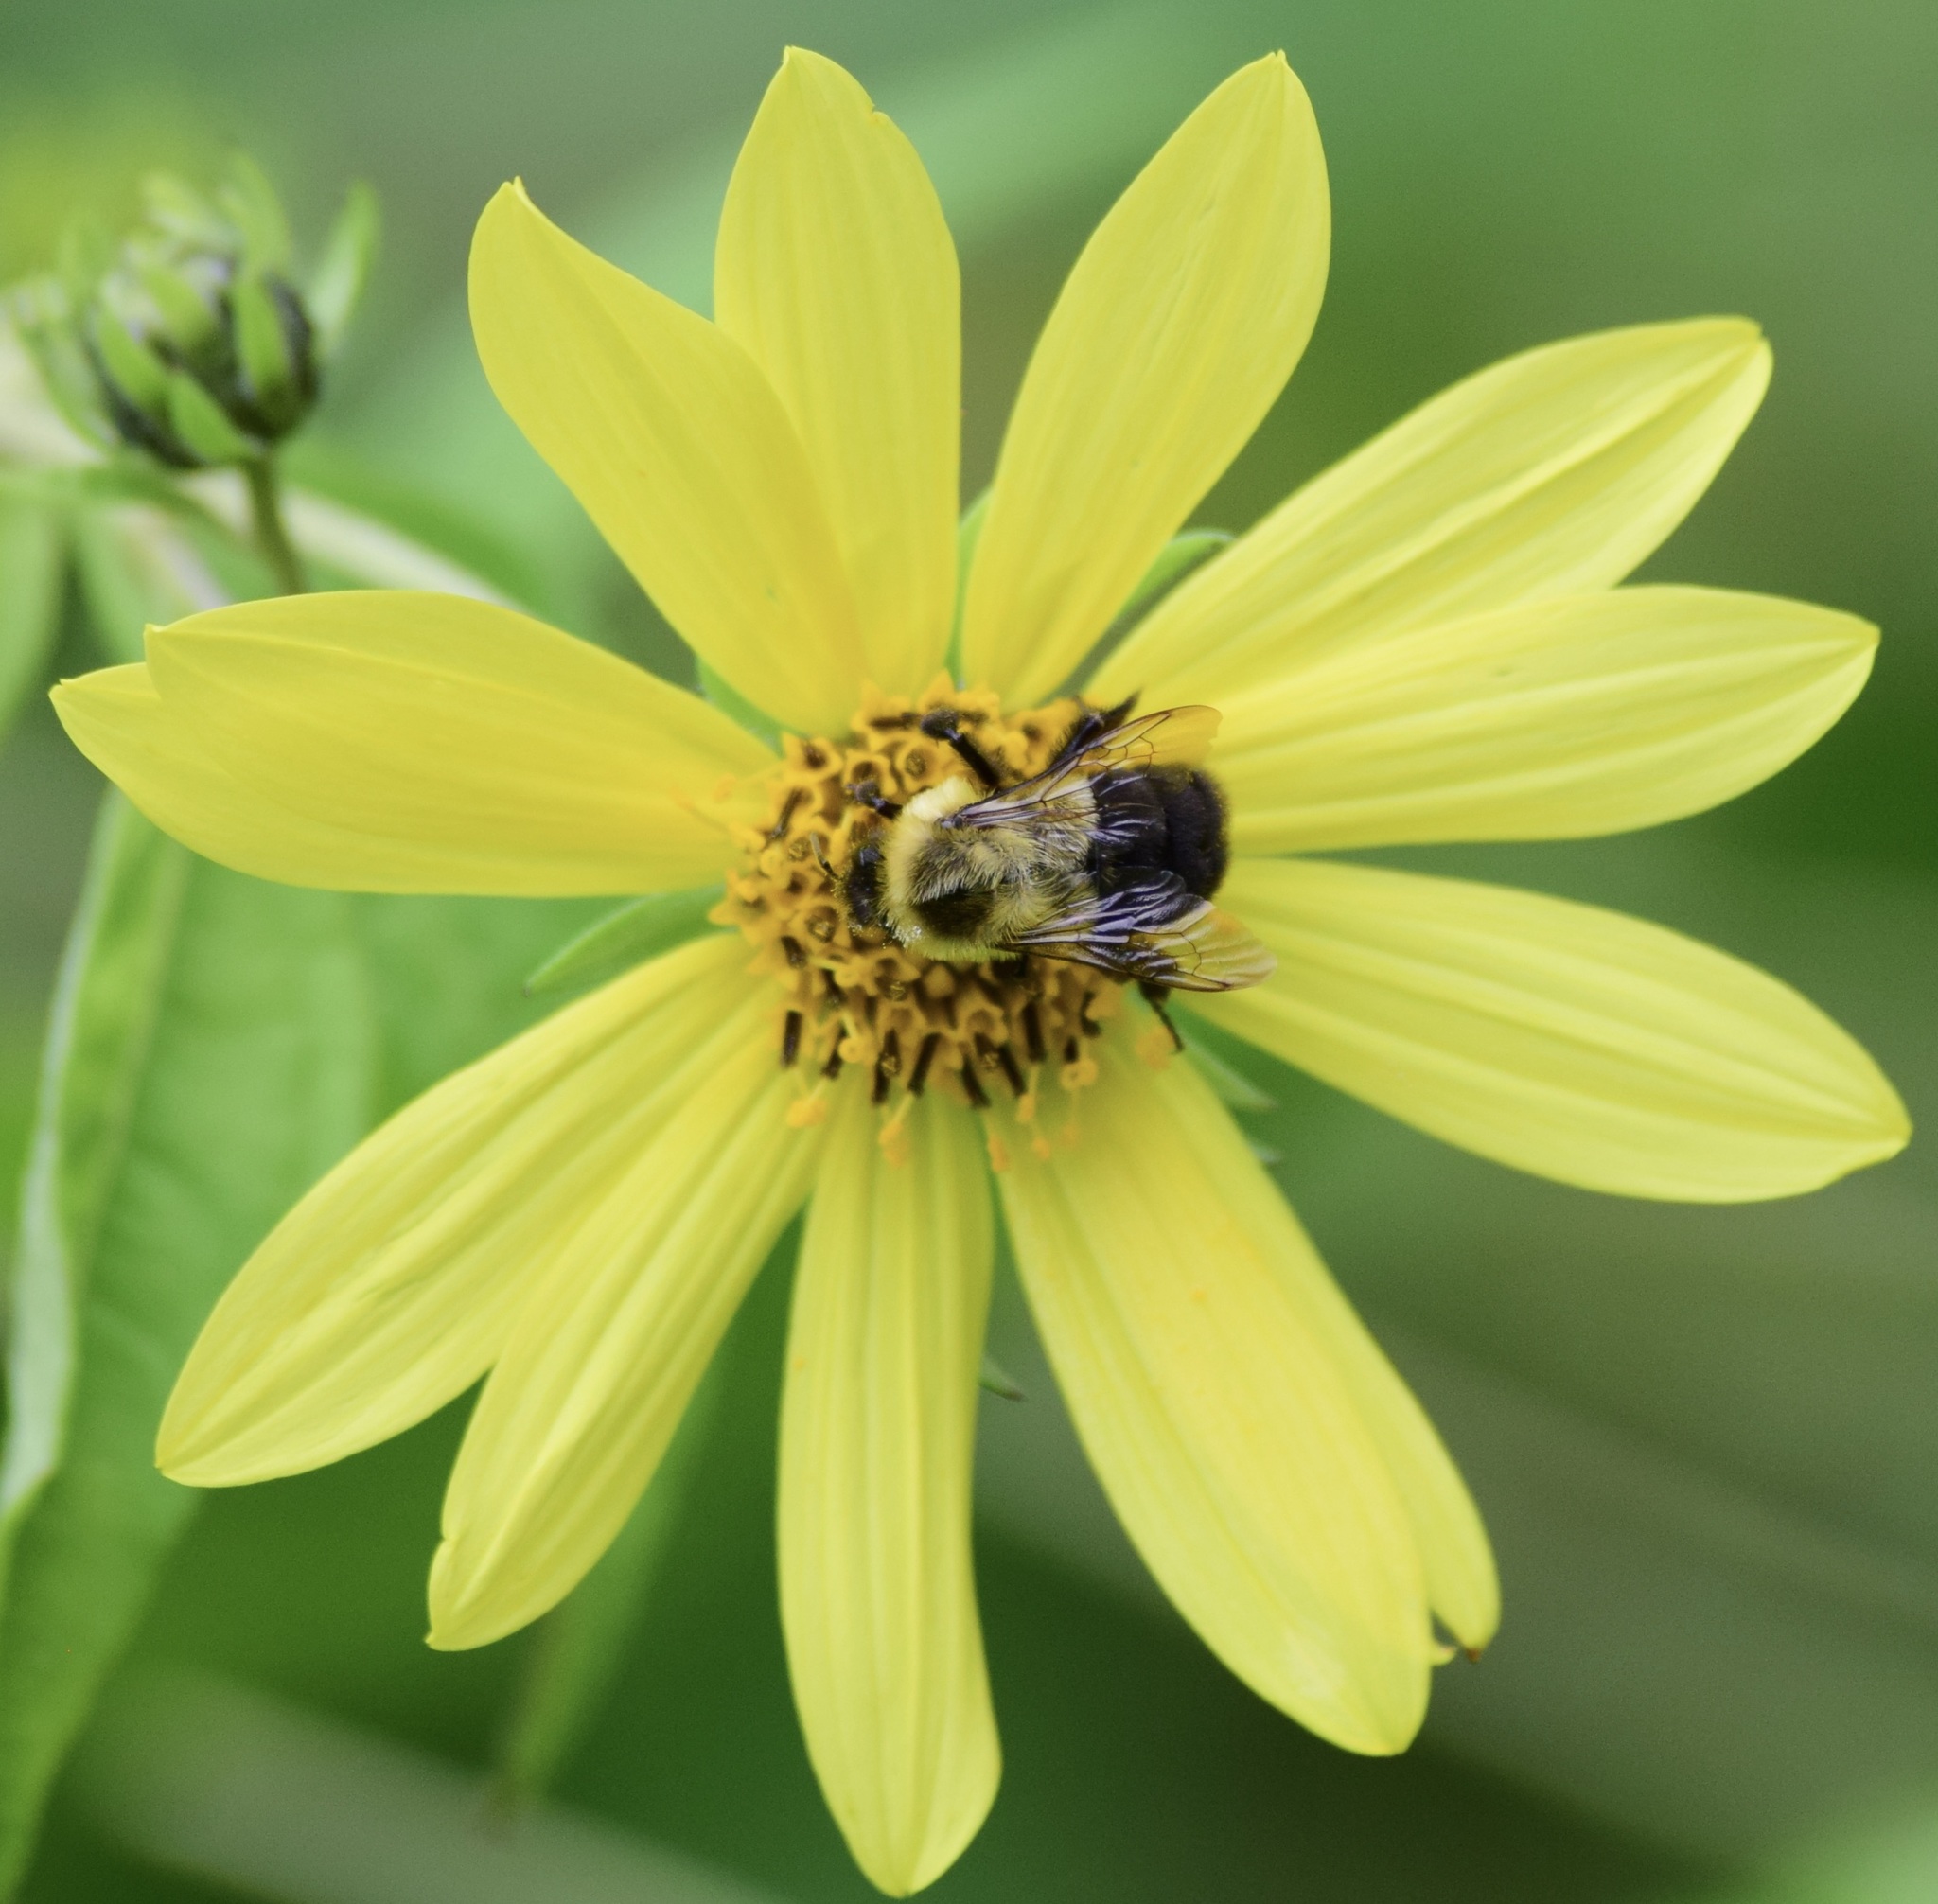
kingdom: Animalia
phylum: Arthropoda
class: Insecta
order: Hymenoptera
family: Apidae
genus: Bombus
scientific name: Bombus impatiens
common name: Common eastern bumble bee
